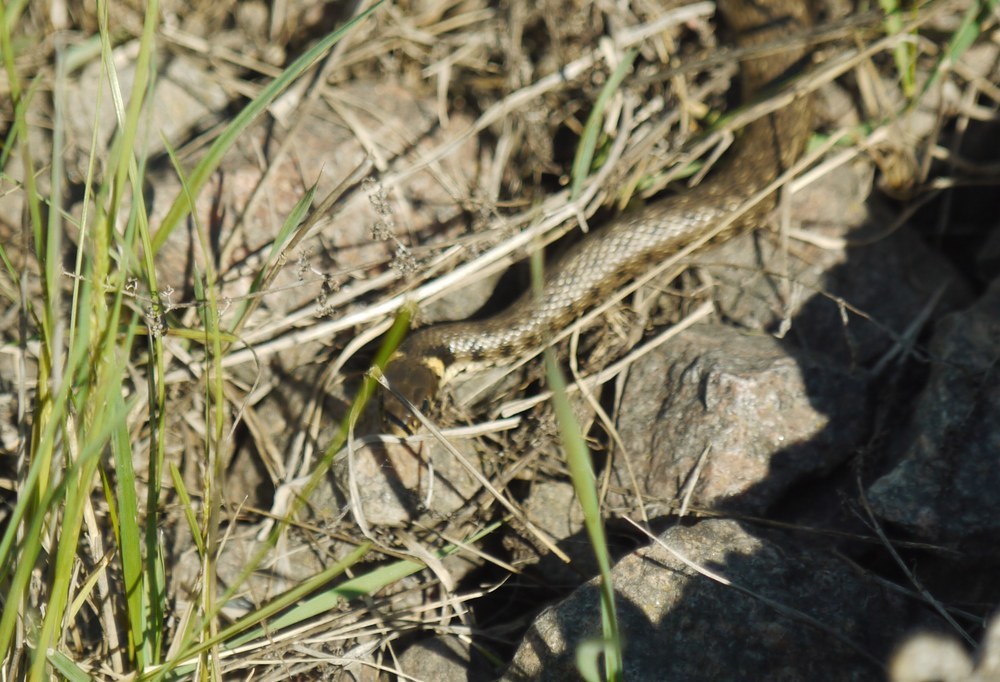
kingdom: Animalia
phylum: Chordata
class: Squamata
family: Colubridae
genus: Natrix
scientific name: Natrix natrix
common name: Grass snake
